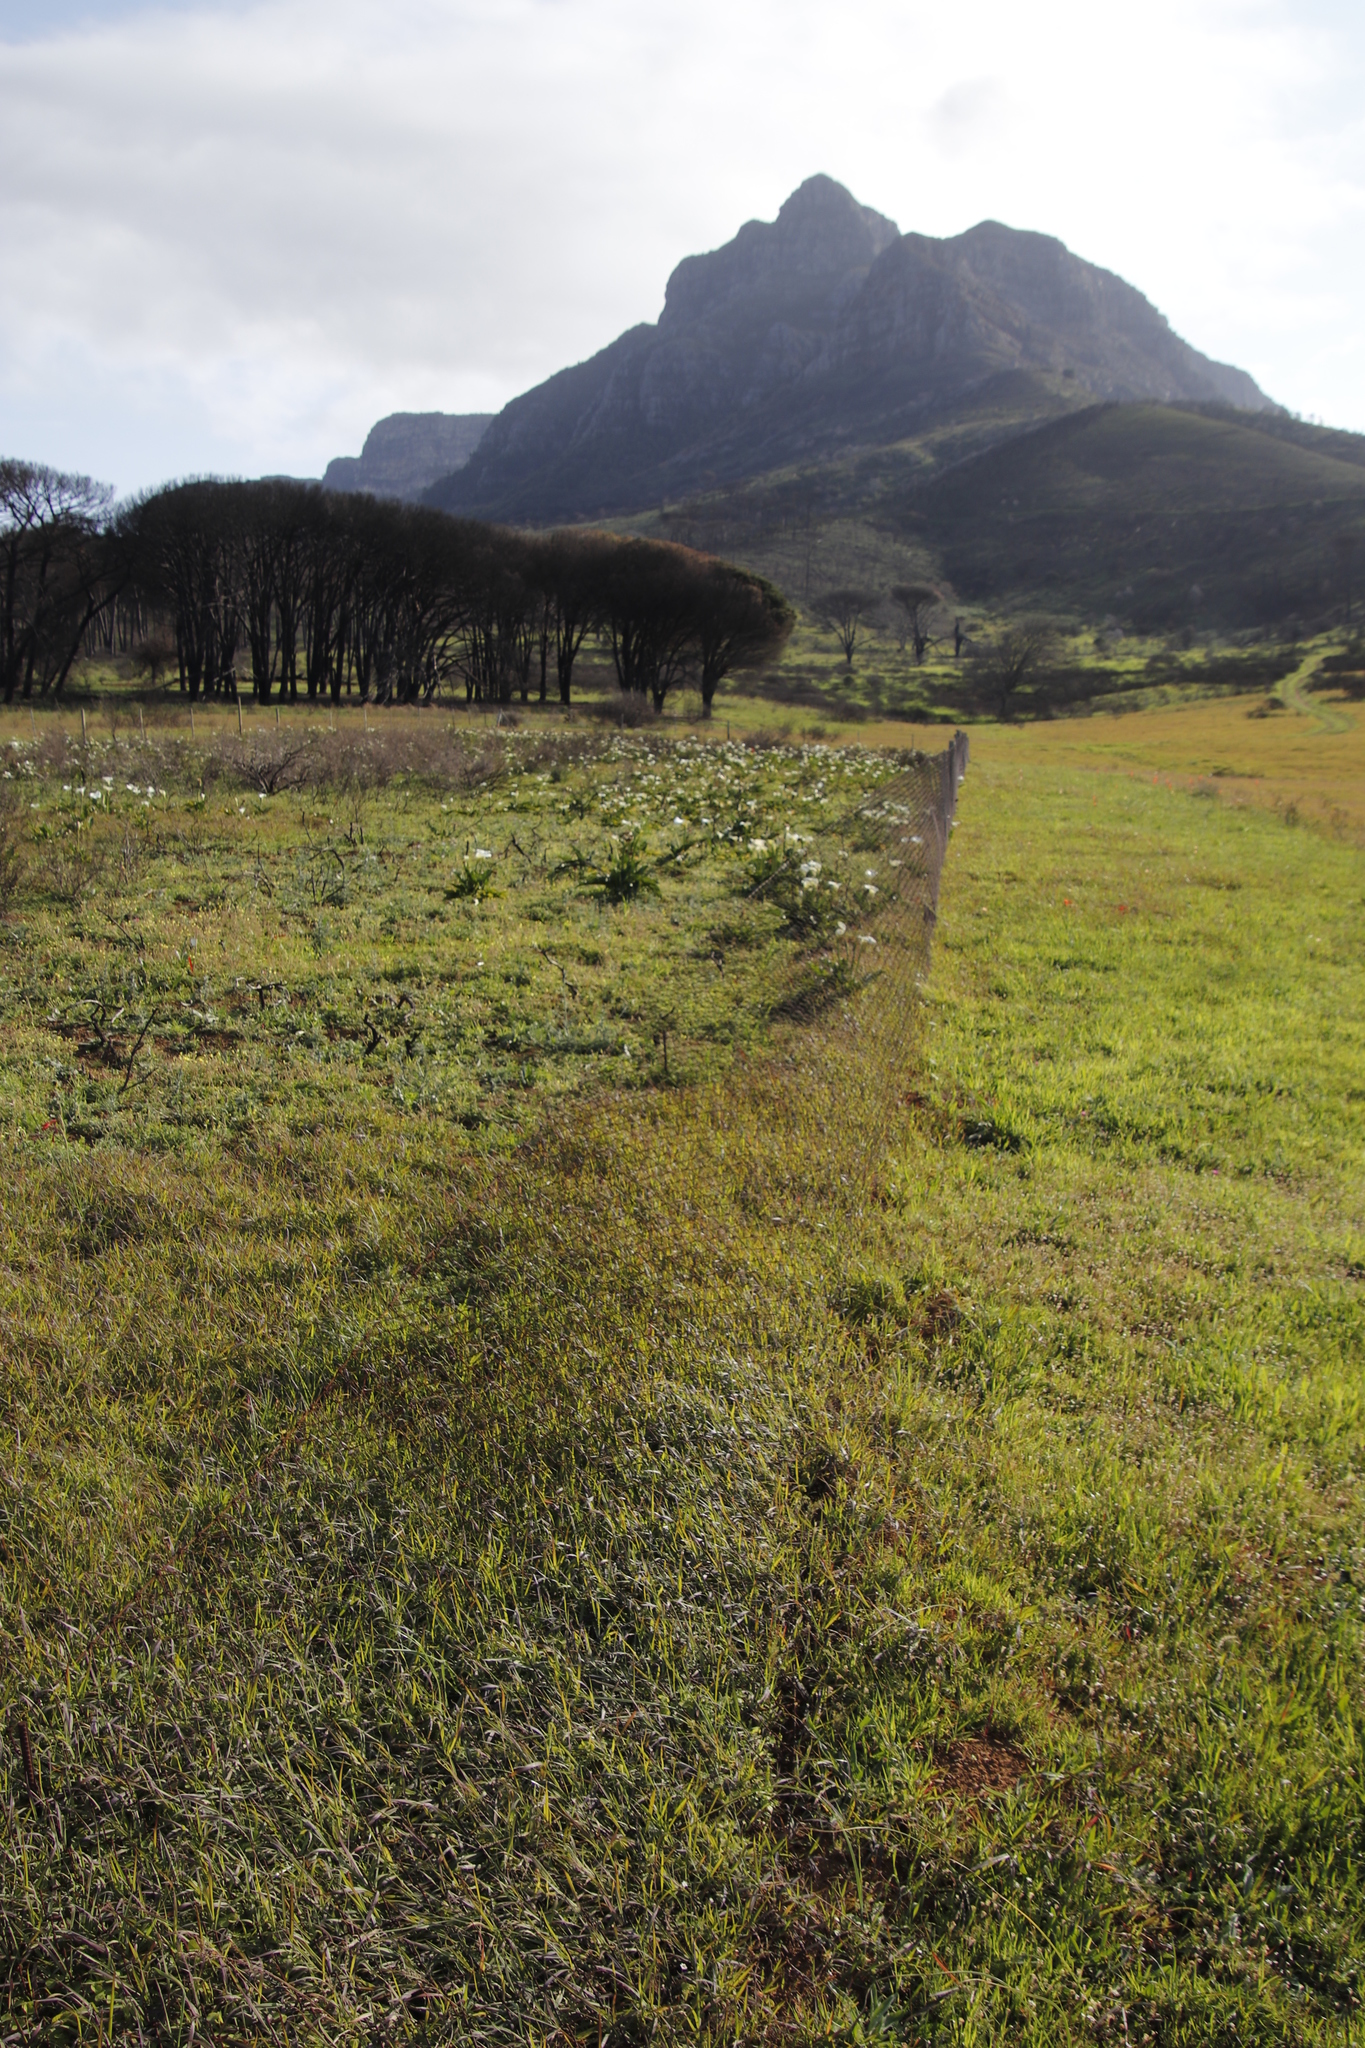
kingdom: Plantae
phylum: Tracheophyta
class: Liliopsida
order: Alismatales
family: Araceae
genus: Zantedeschia
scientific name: Zantedeschia aethiopica
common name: Altar-lily
